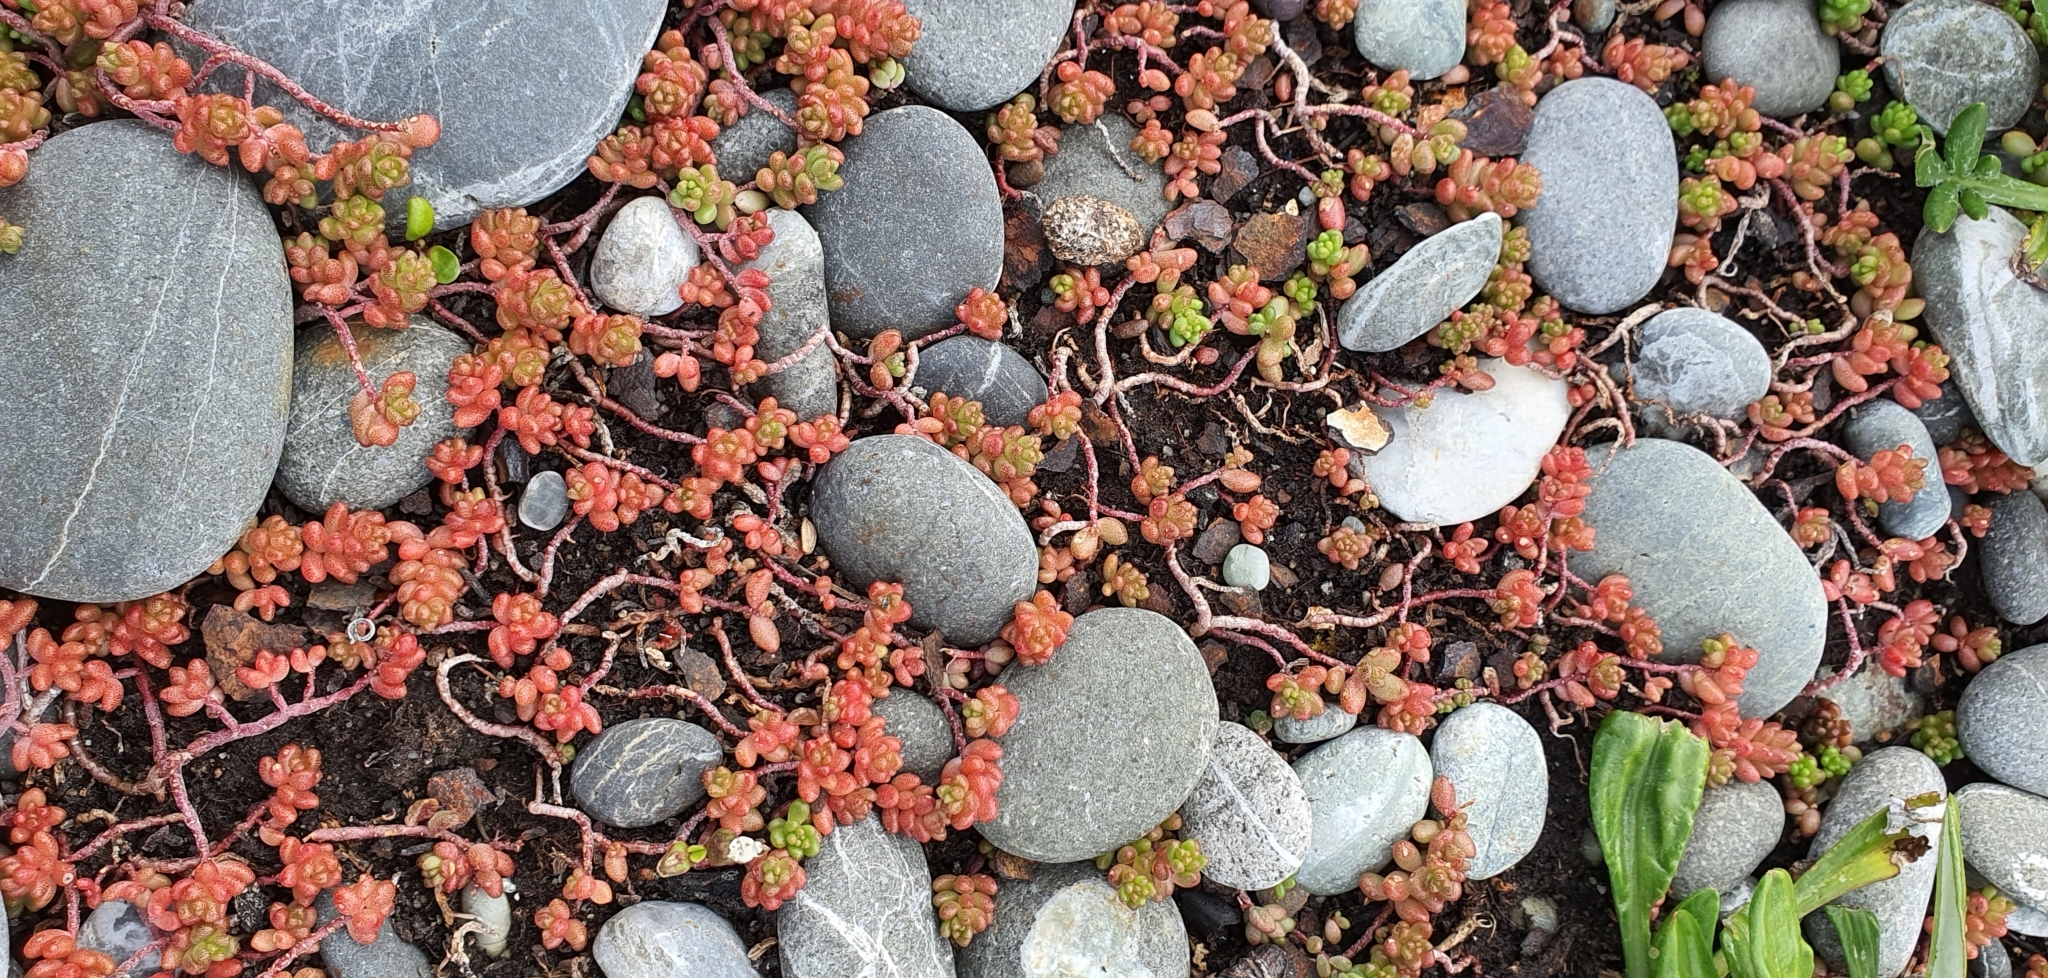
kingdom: Plantae
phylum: Tracheophyta
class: Magnoliopsida
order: Saxifragales
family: Crassulaceae
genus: Sedum
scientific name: Sedum album
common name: White stonecrop
